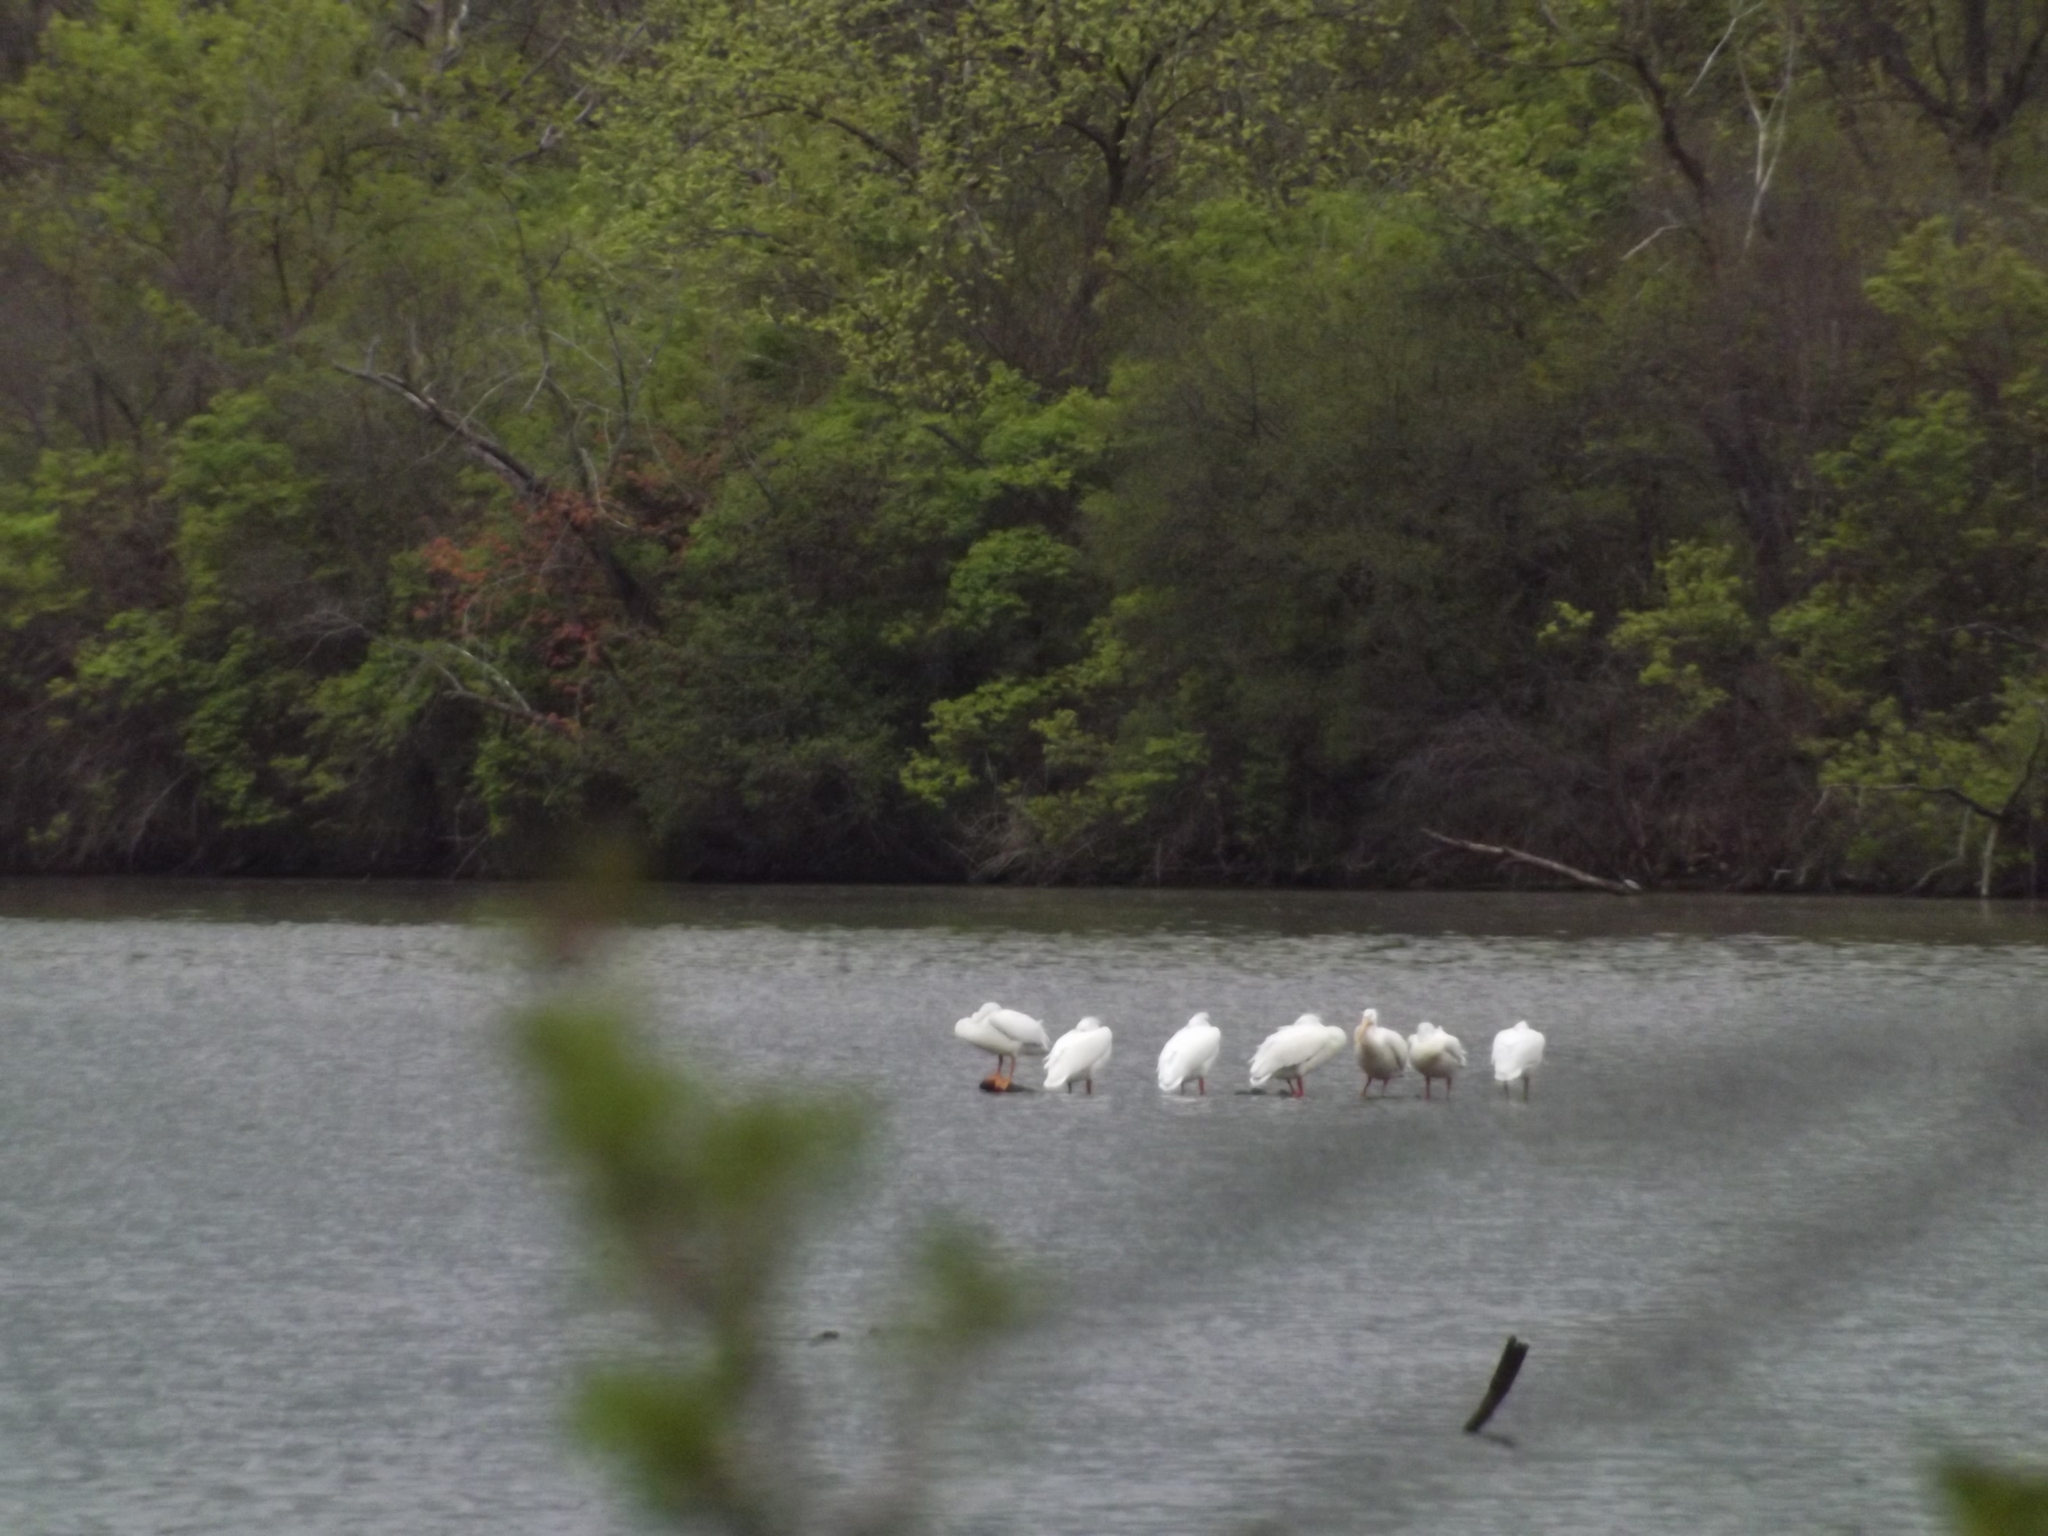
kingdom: Animalia
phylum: Chordata
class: Aves
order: Pelecaniformes
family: Pelecanidae
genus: Pelecanus
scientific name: Pelecanus erythrorhynchos
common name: American white pelican
